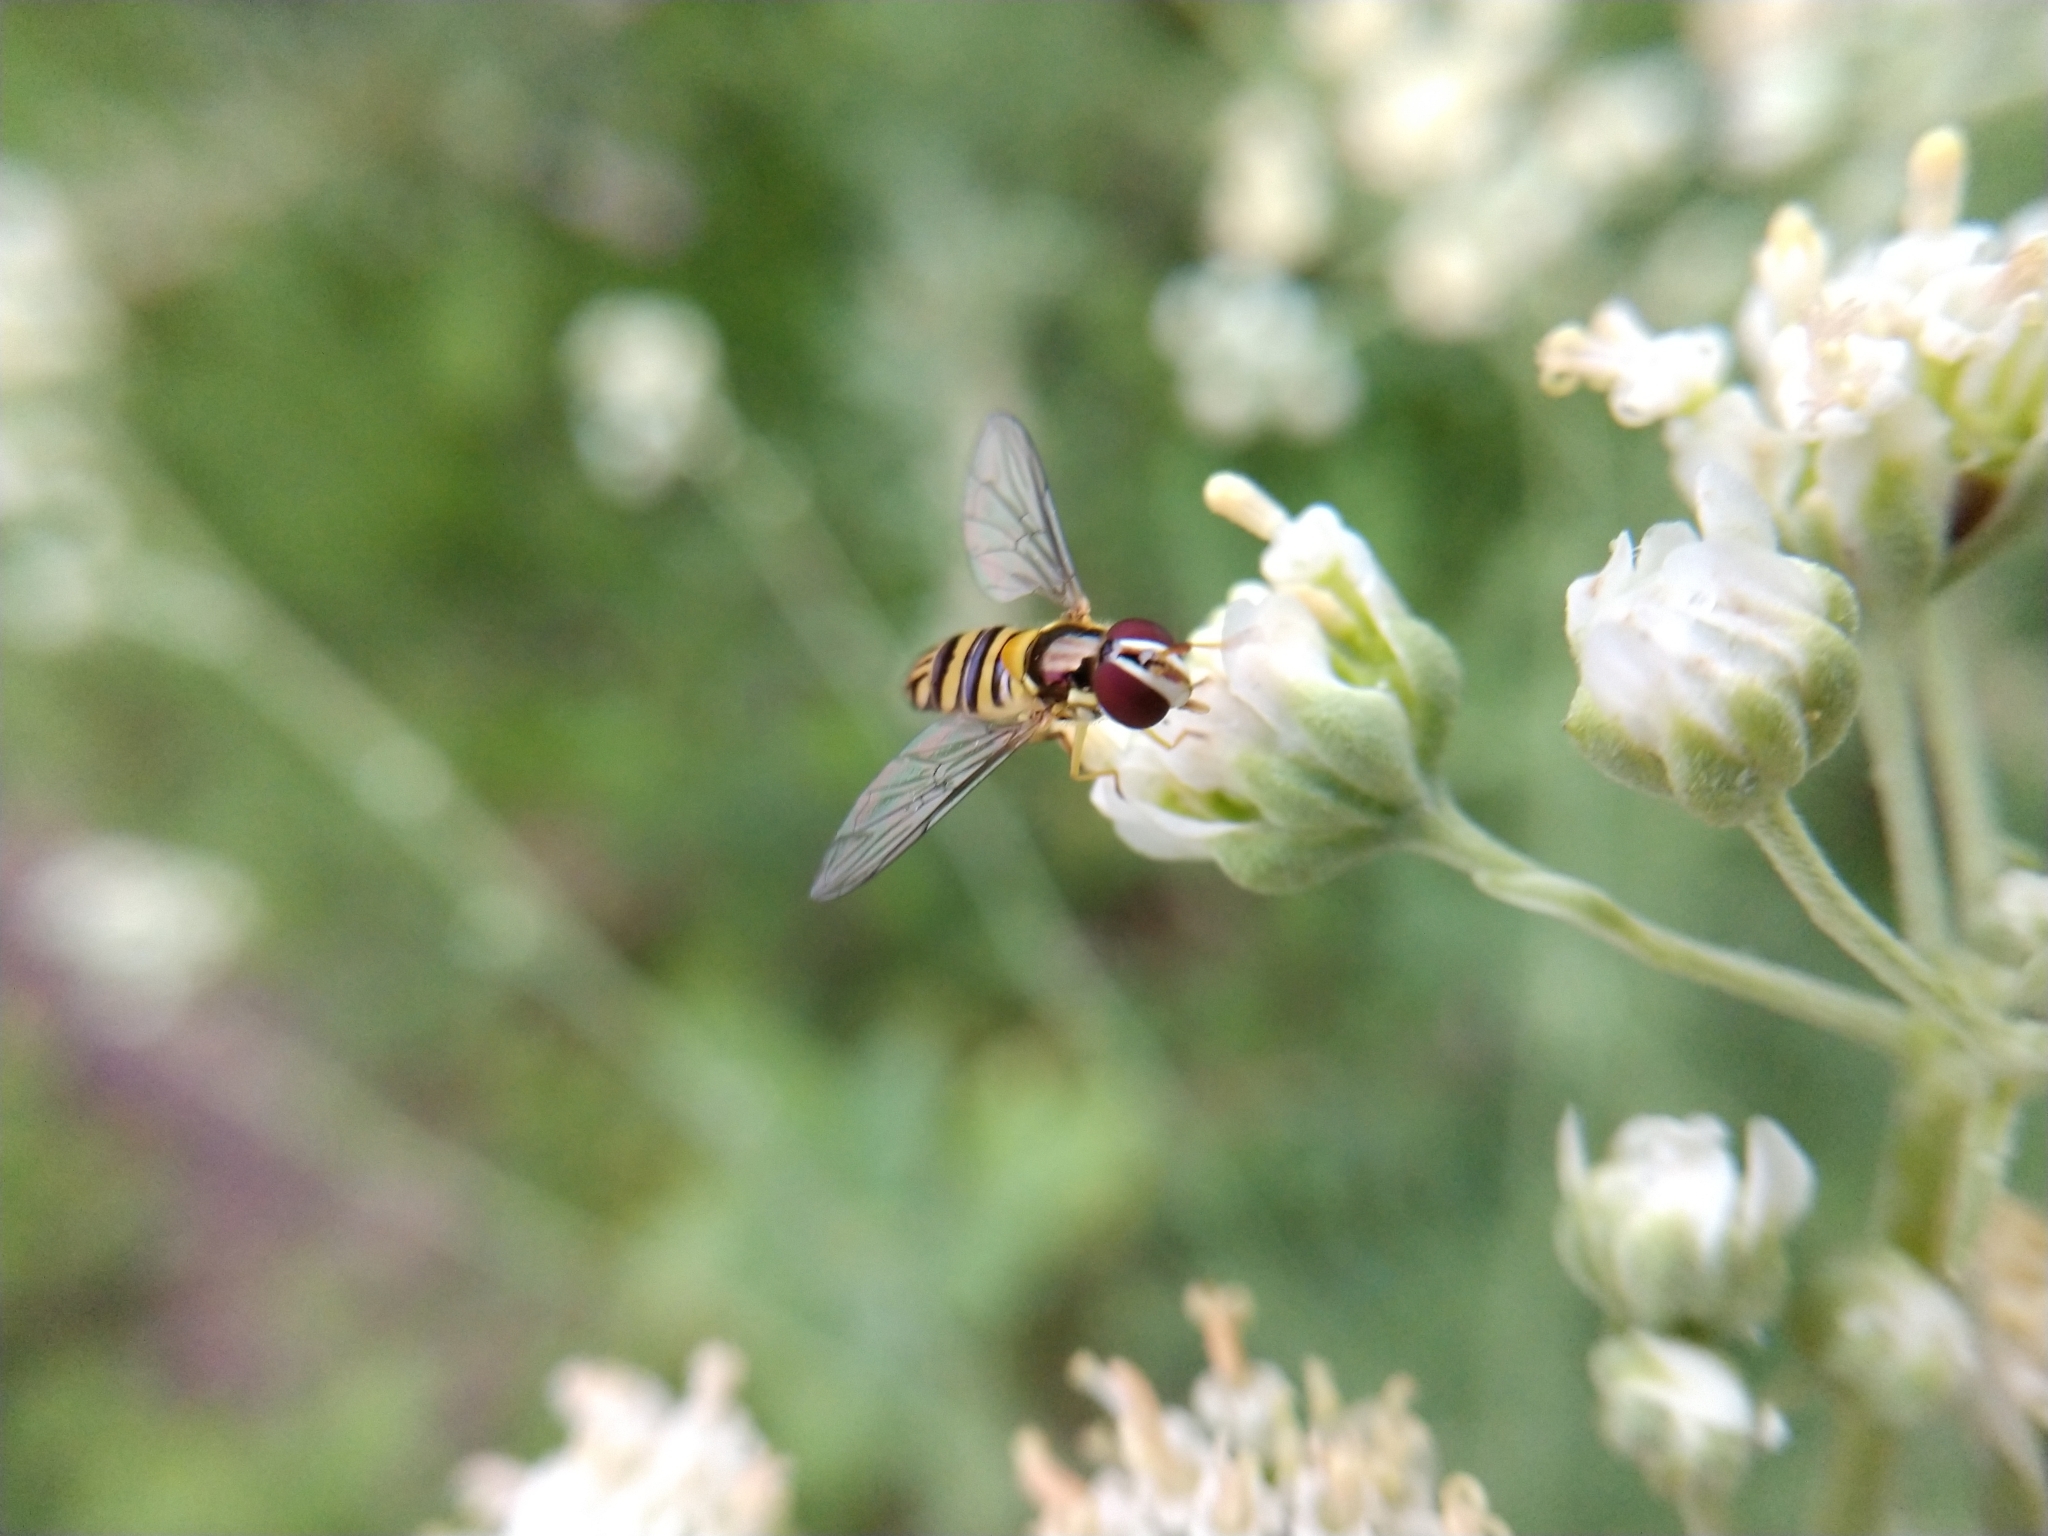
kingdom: Animalia
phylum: Arthropoda
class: Insecta
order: Diptera
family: Syrphidae
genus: Allograpta
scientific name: Allograpta obliqua
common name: Common oblique syrphid
